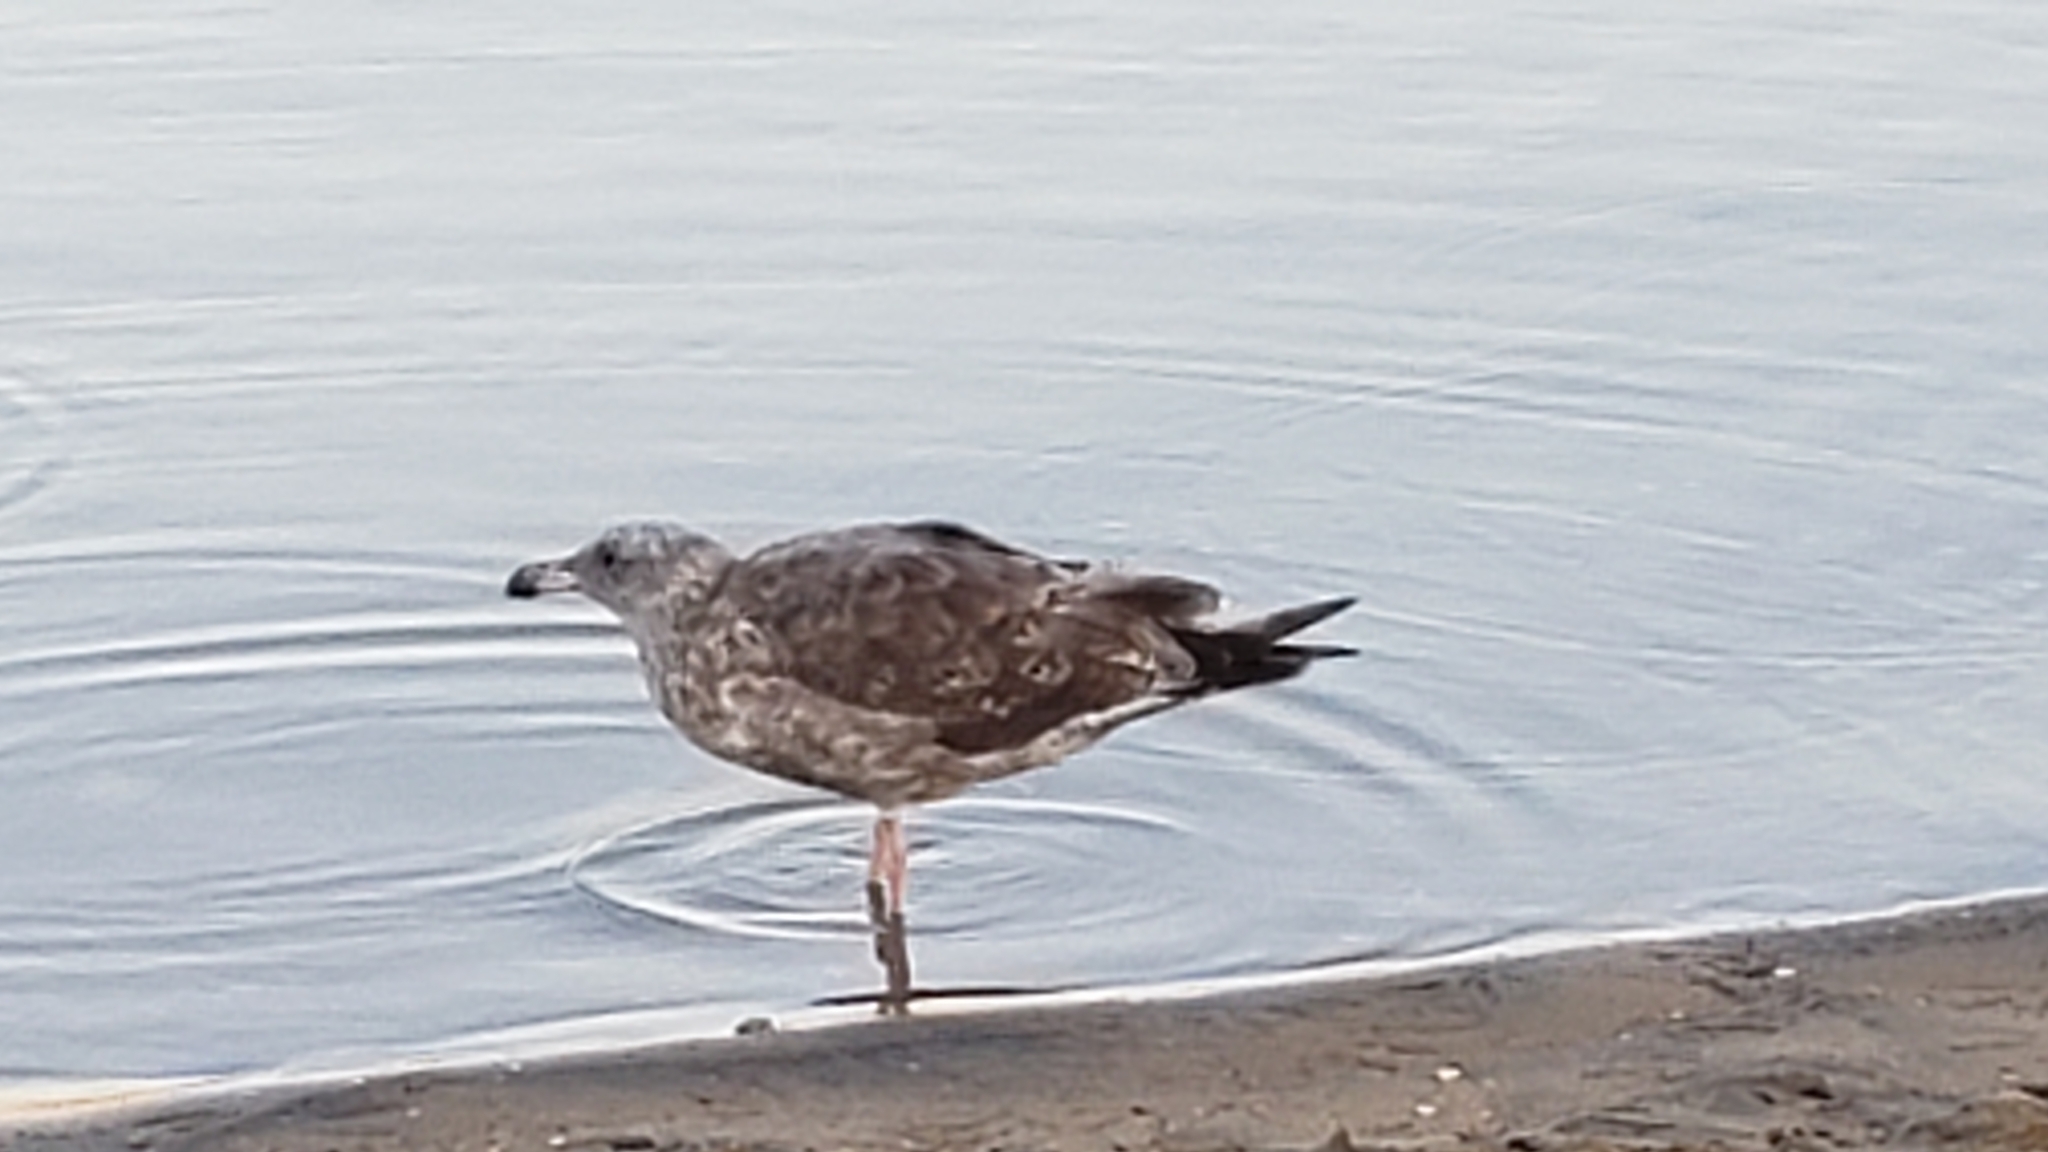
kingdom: Animalia
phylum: Chordata
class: Aves
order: Charadriiformes
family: Laridae
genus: Larus
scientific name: Larus occidentalis
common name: Western gull
